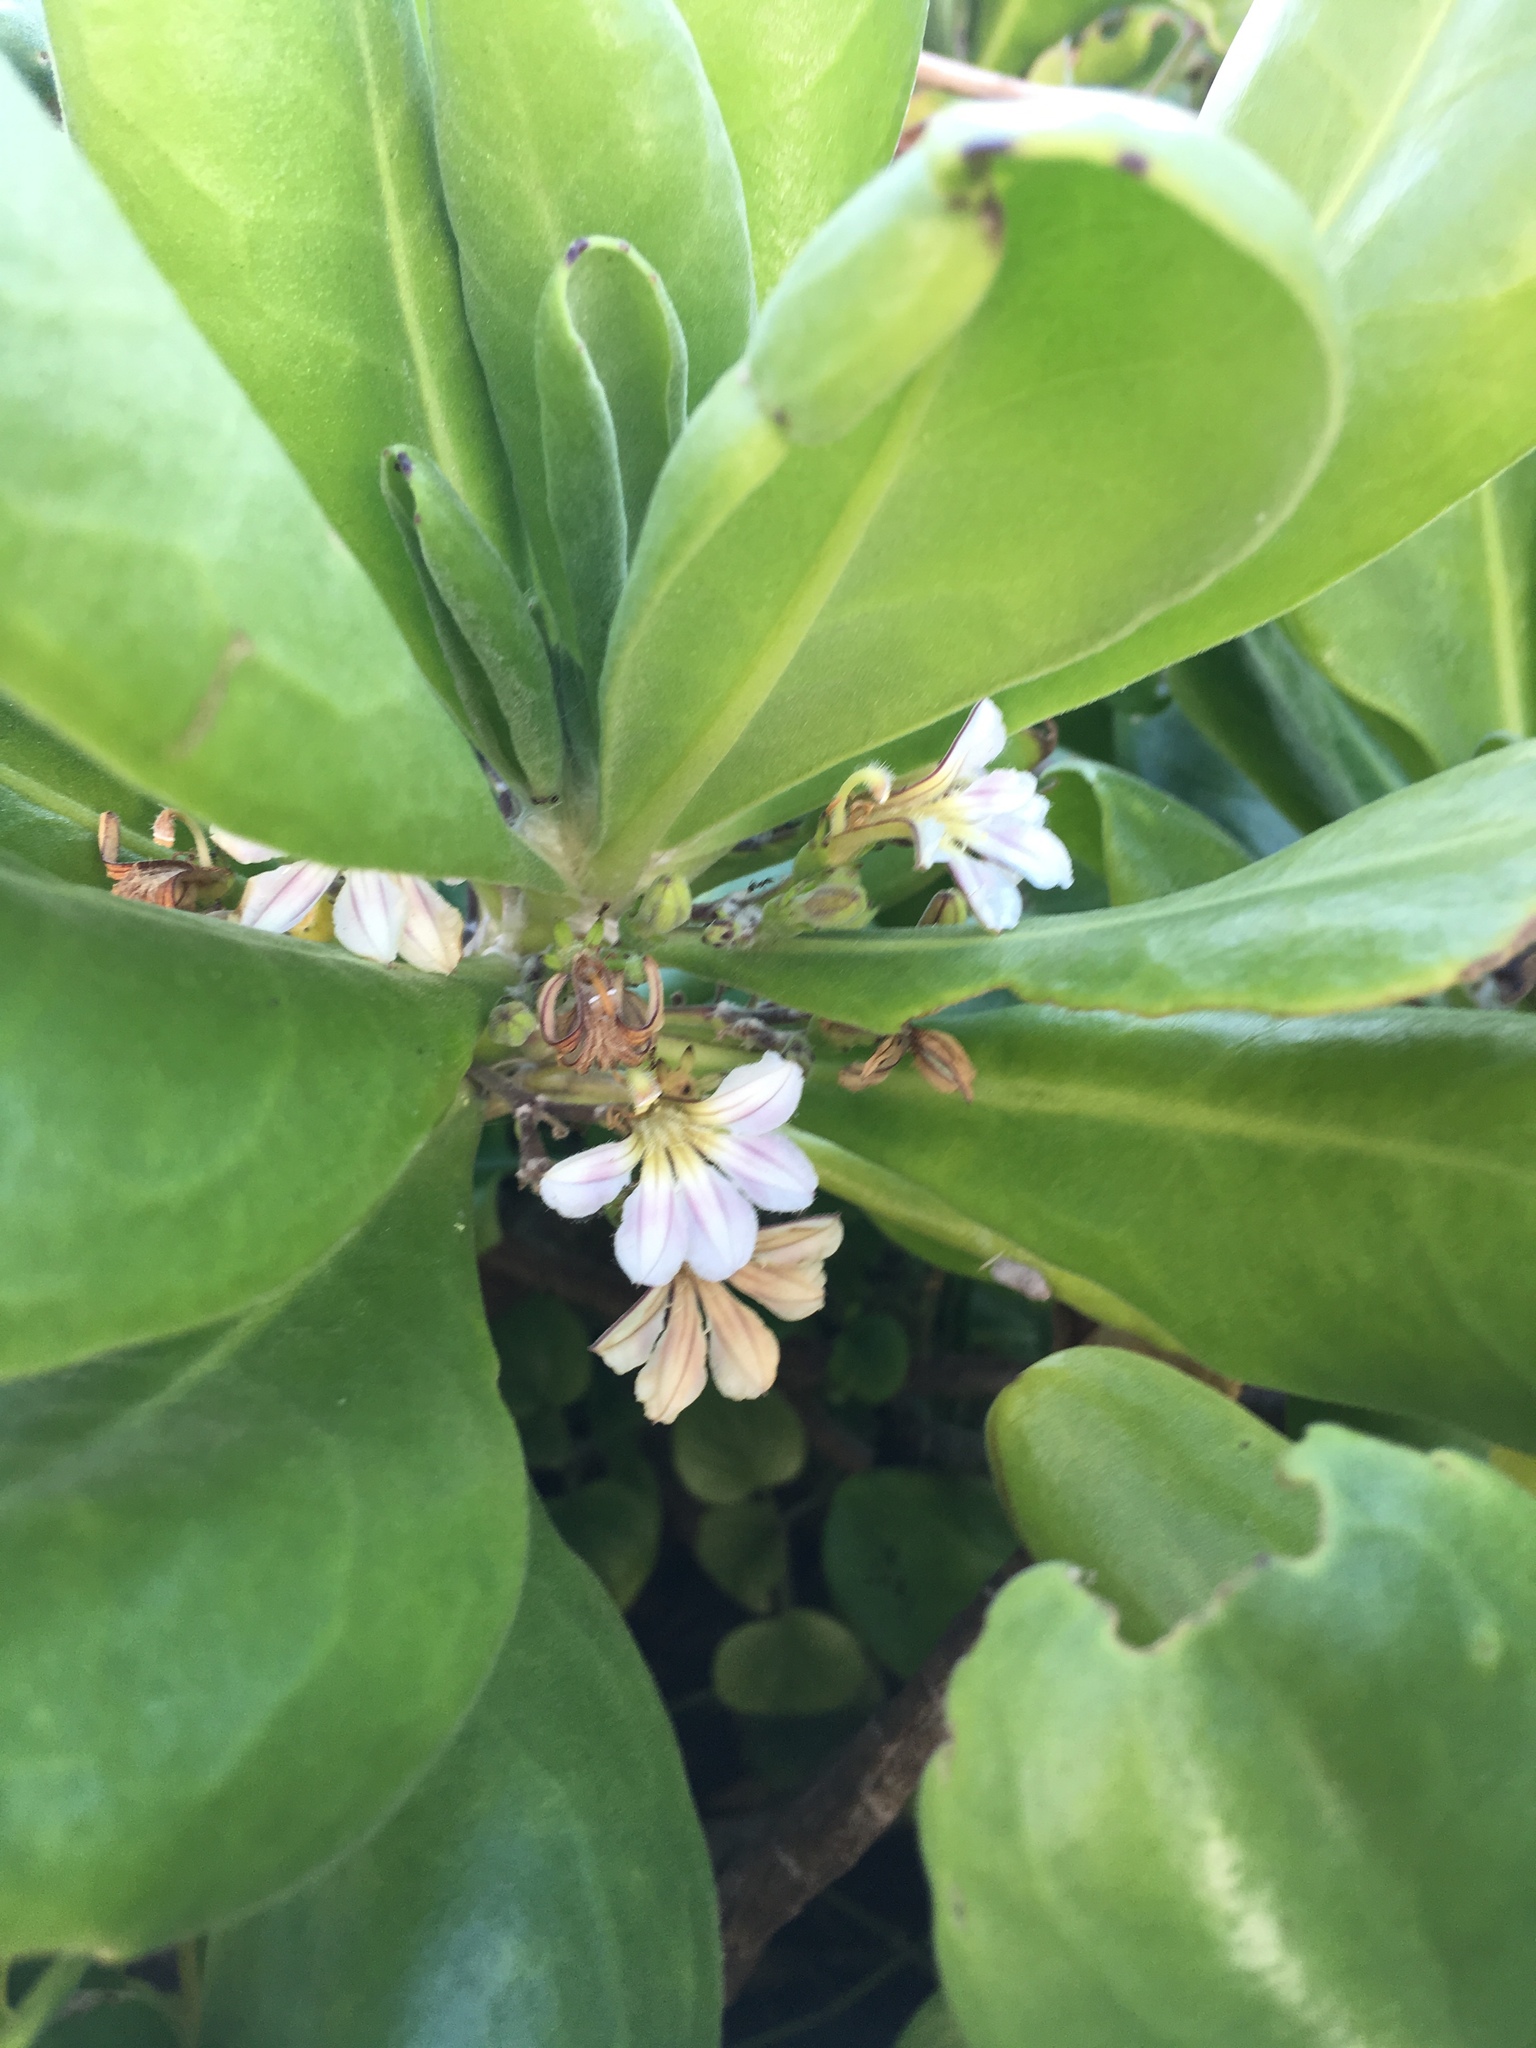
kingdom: Plantae
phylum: Tracheophyta
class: Magnoliopsida
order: Asterales
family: Goodeniaceae
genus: Scaevola
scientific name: Scaevola taccada
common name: Sea lettucetree
